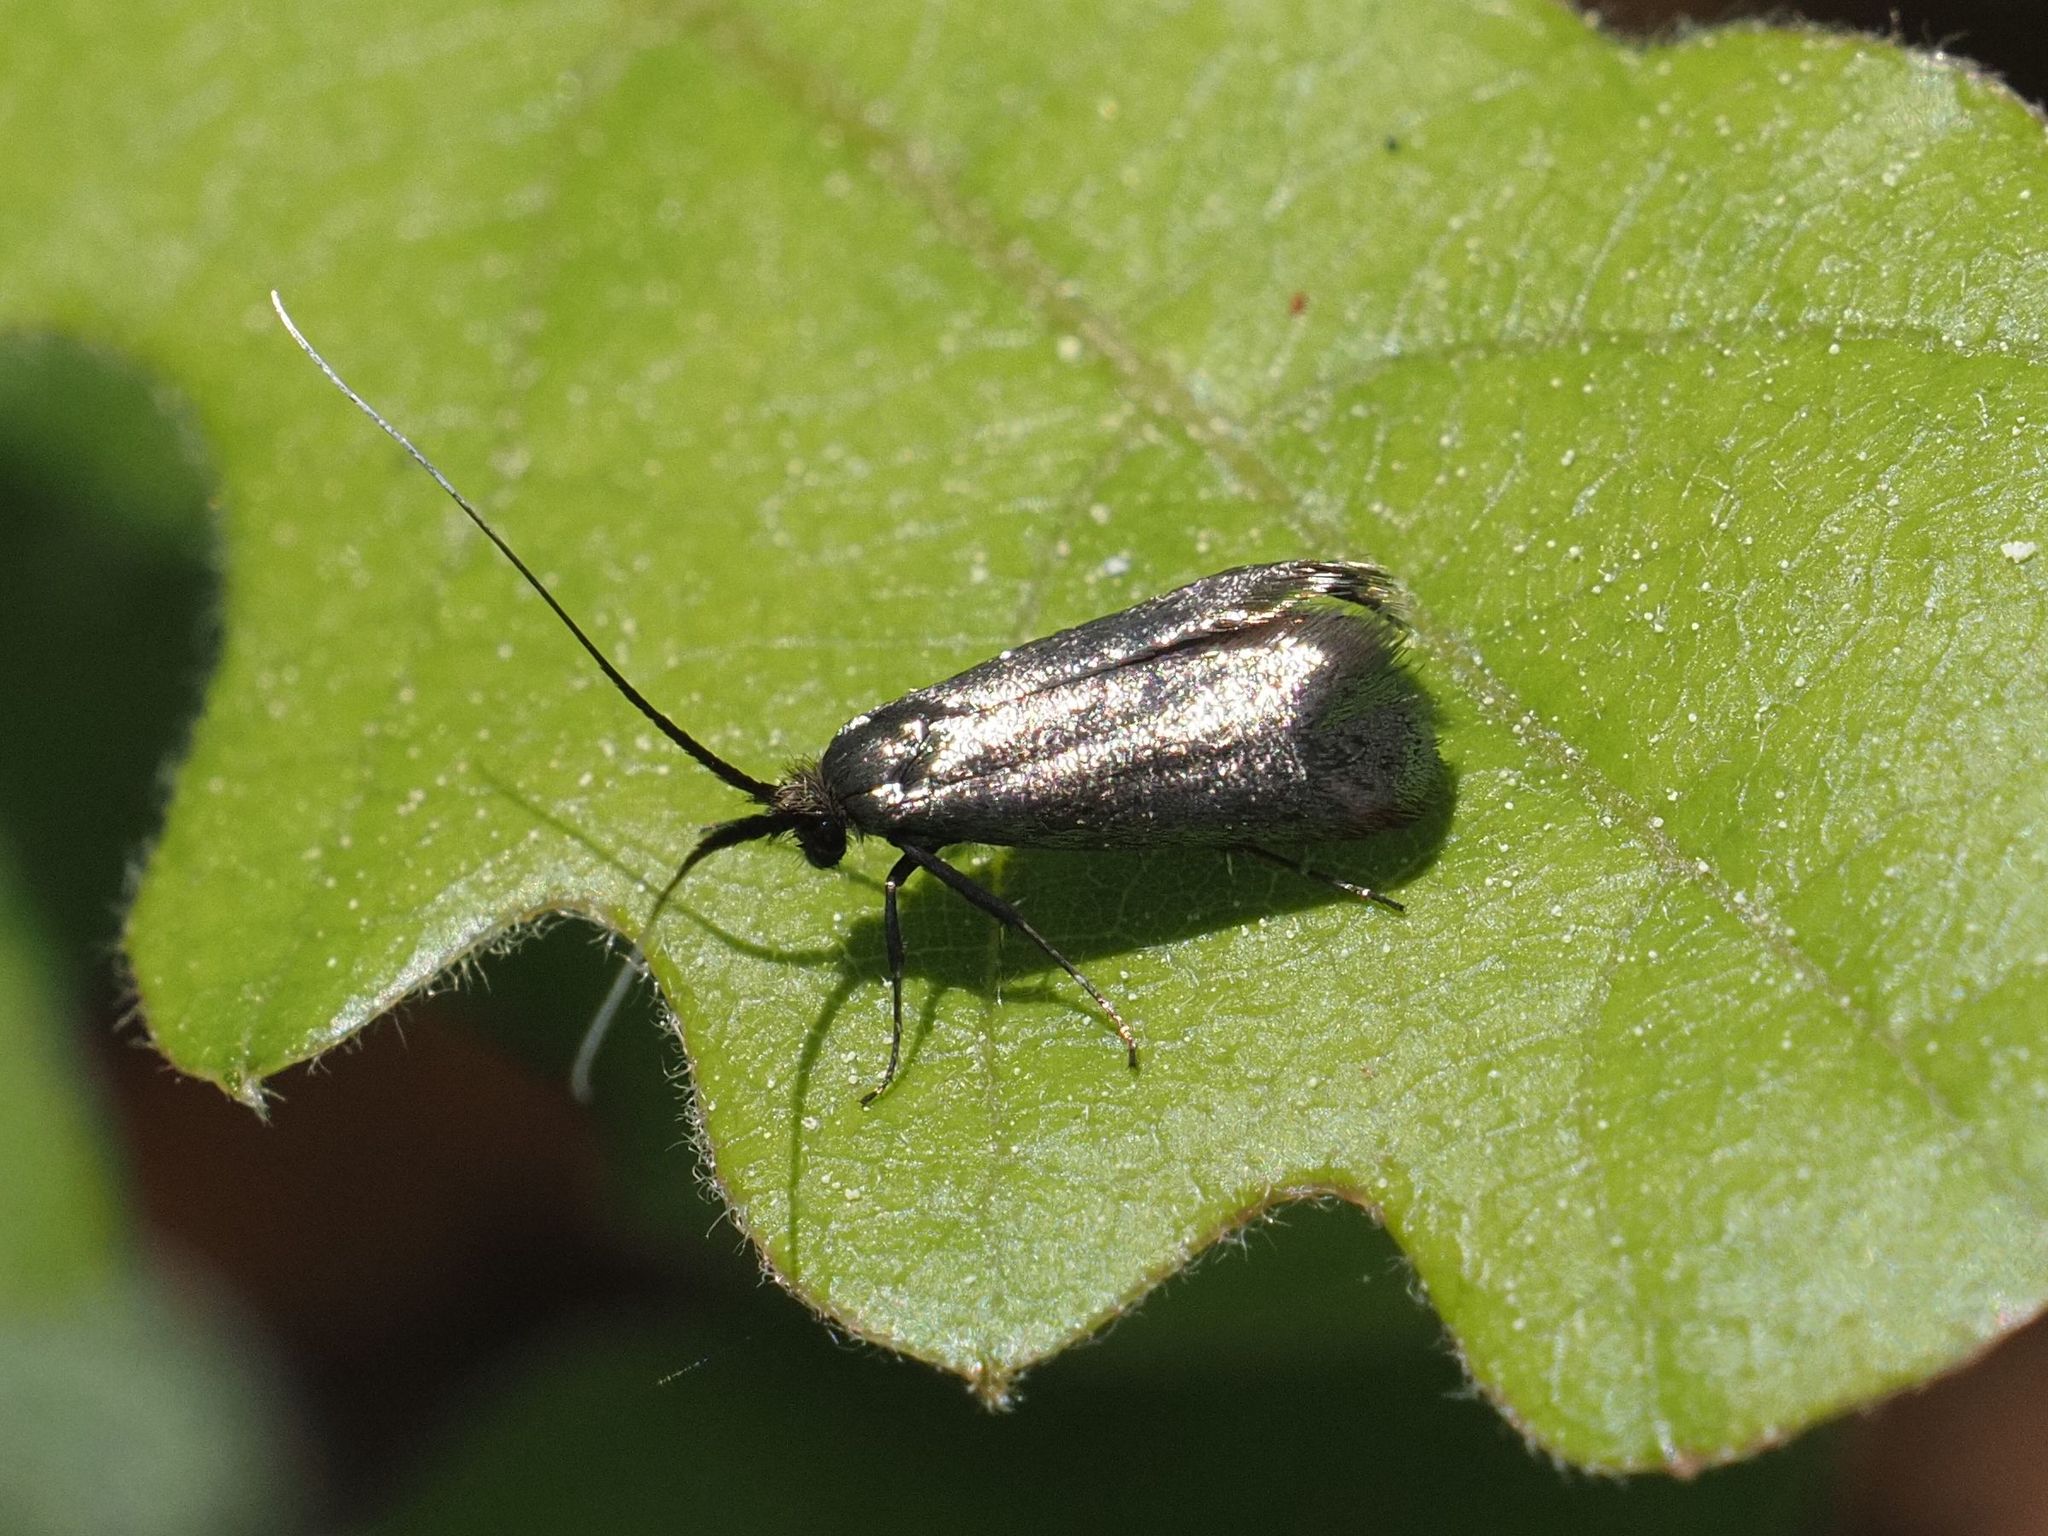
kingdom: Animalia
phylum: Arthropoda
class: Insecta
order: Lepidoptera
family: Adelidae
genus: Adela
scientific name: Adela viridella
